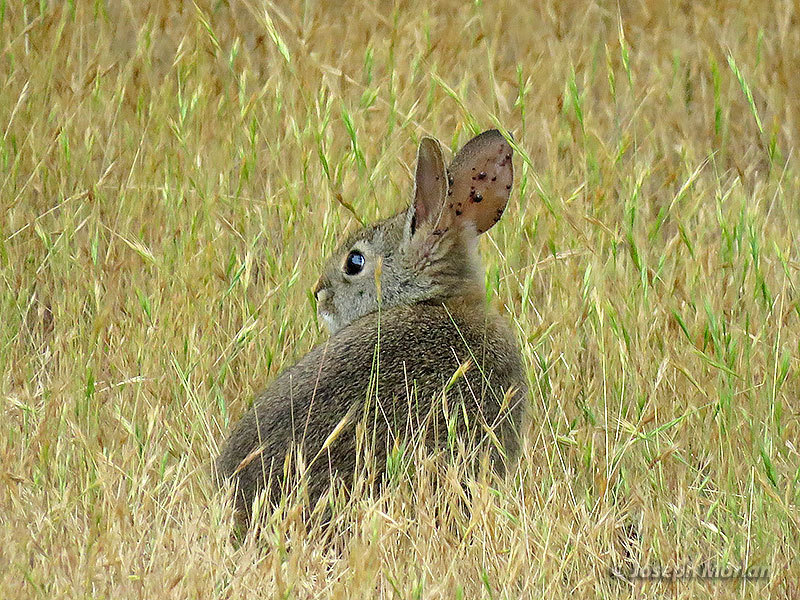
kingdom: Animalia
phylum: Chordata
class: Mammalia
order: Lagomorpha
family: Leporidae
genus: Sylvilagus
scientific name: Sylvilagus bachmani
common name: Brush rabbit
